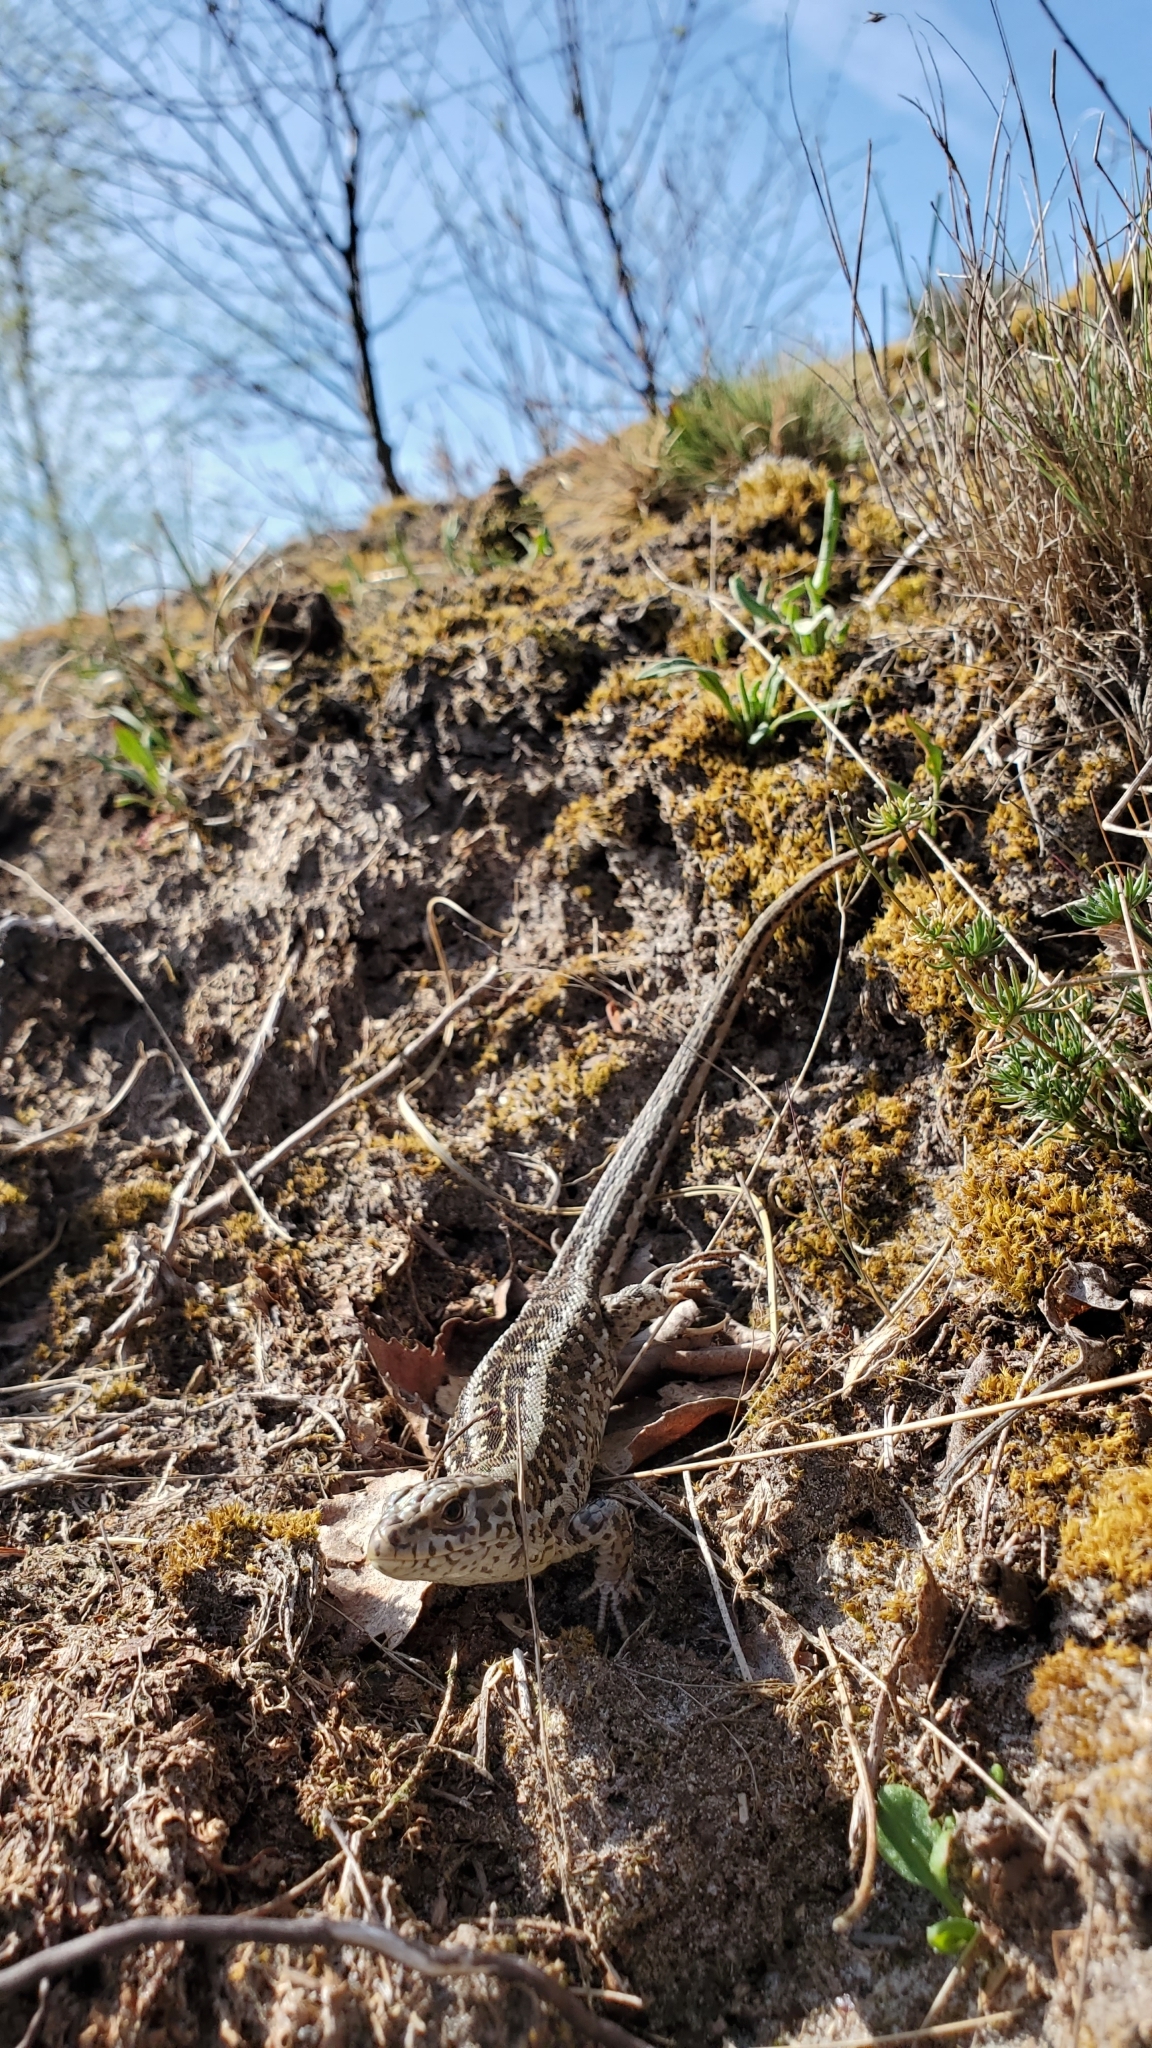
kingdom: Animalia
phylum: Chordata
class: Squamata
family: Lacertidae
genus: Lacerta
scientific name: Lacerta agilis
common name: Sand lizard
